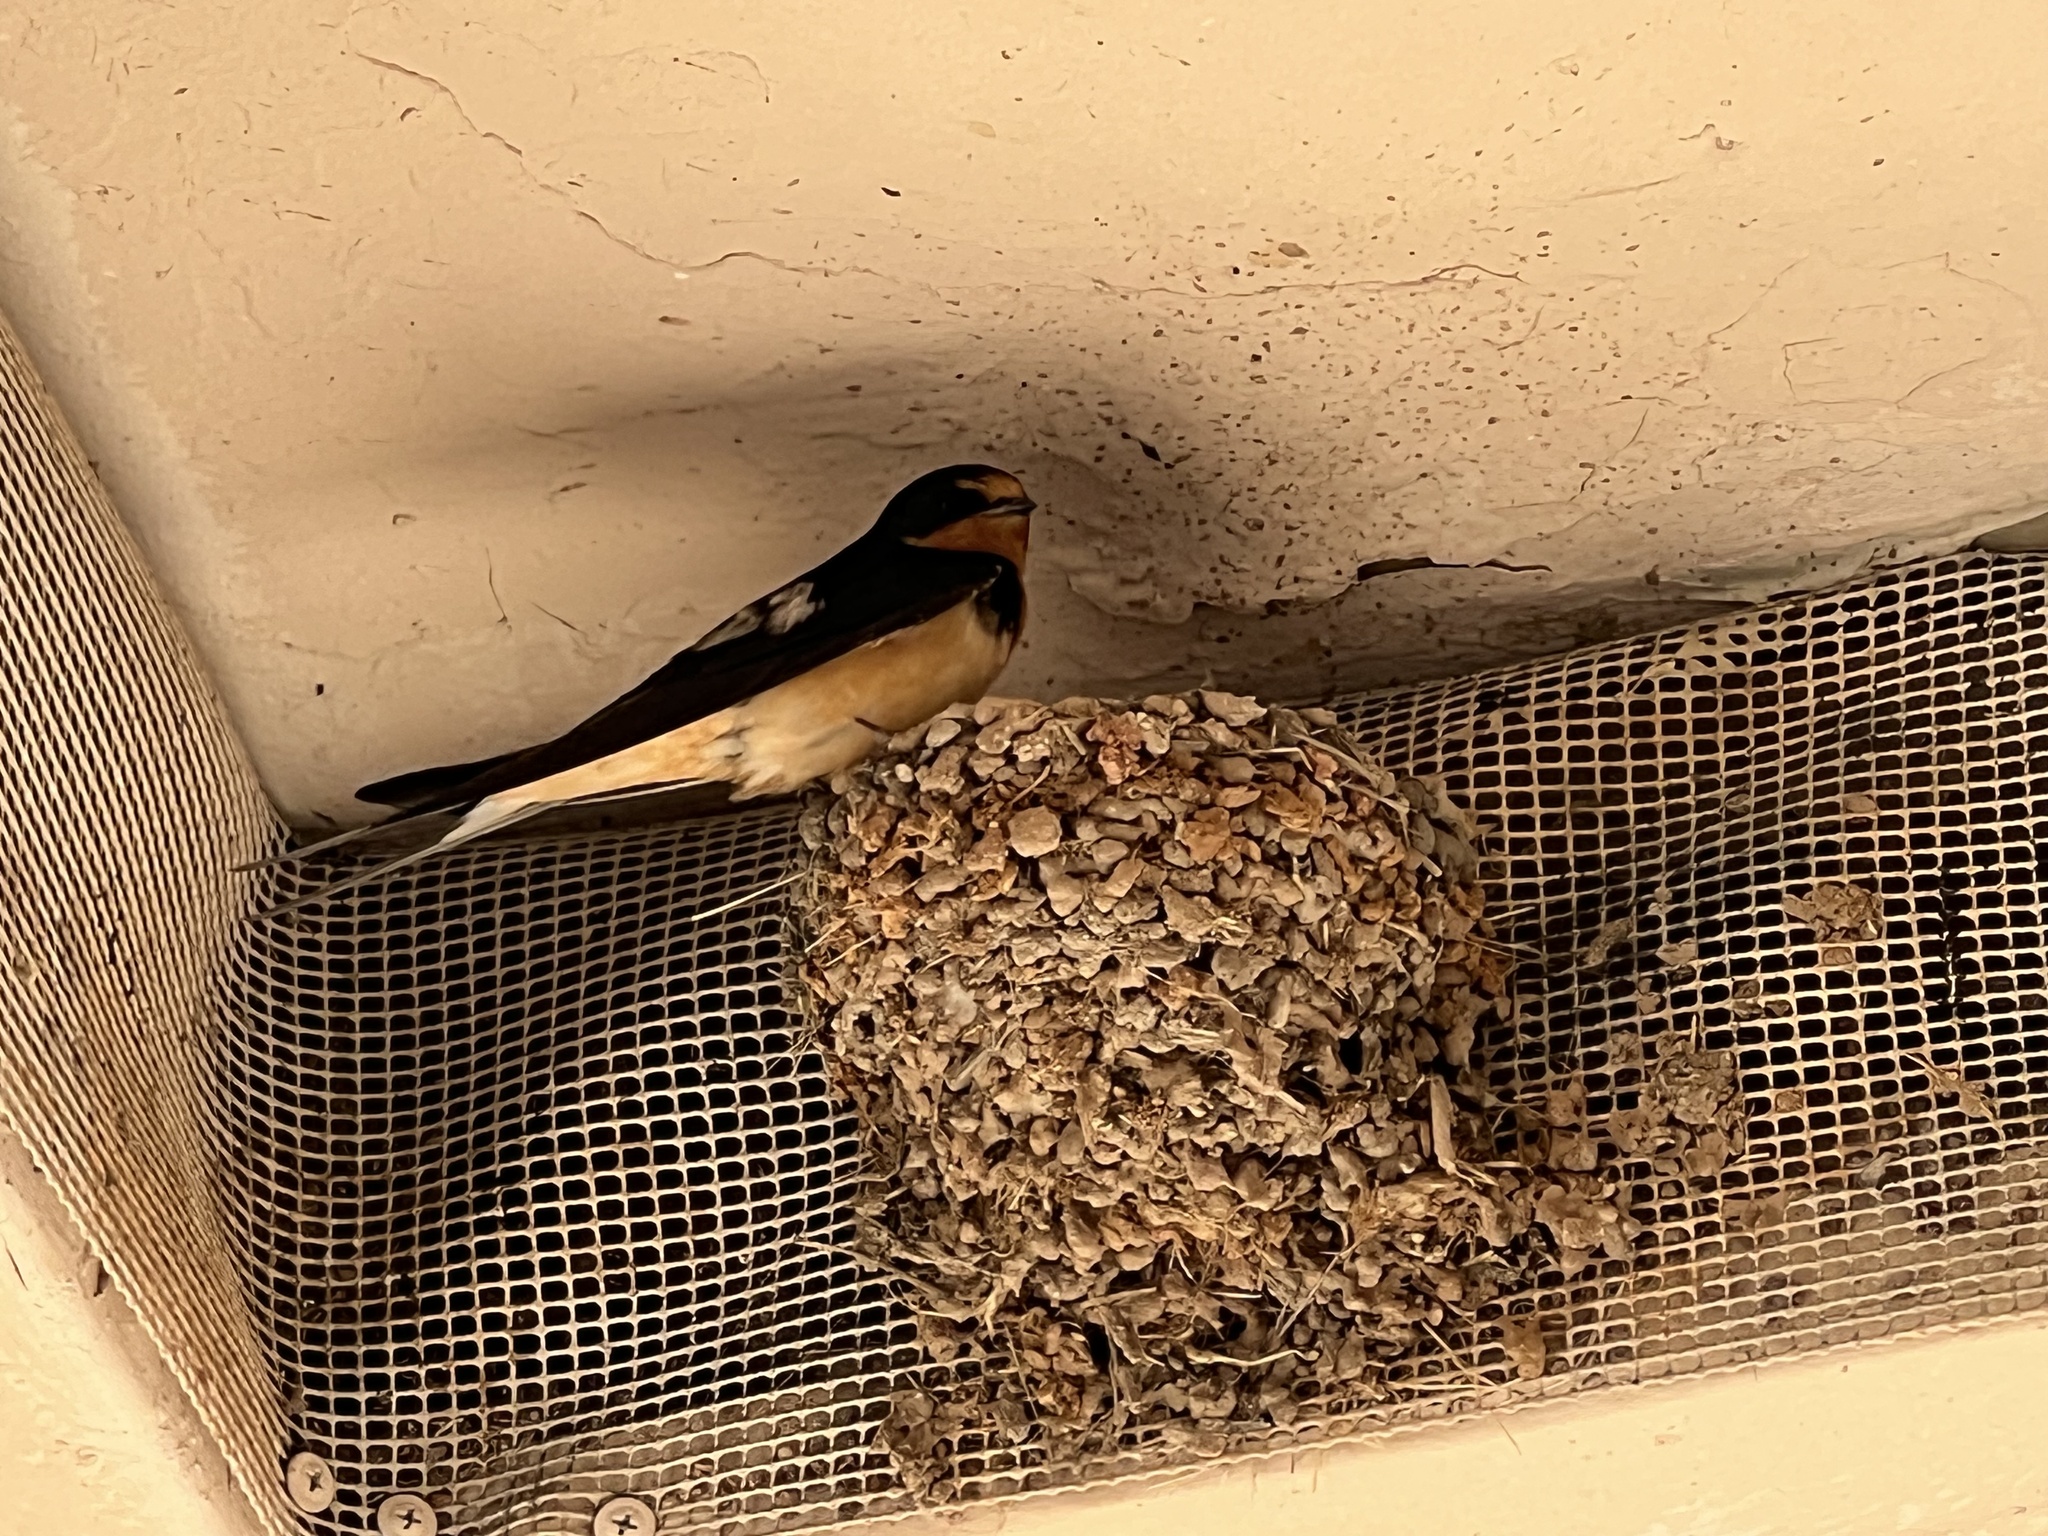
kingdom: Animalia
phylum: Chordata
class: Aves
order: Passeriformes
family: Hirundinidae
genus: Hirundo
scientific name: Hirundo rustica
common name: Barn swallow
